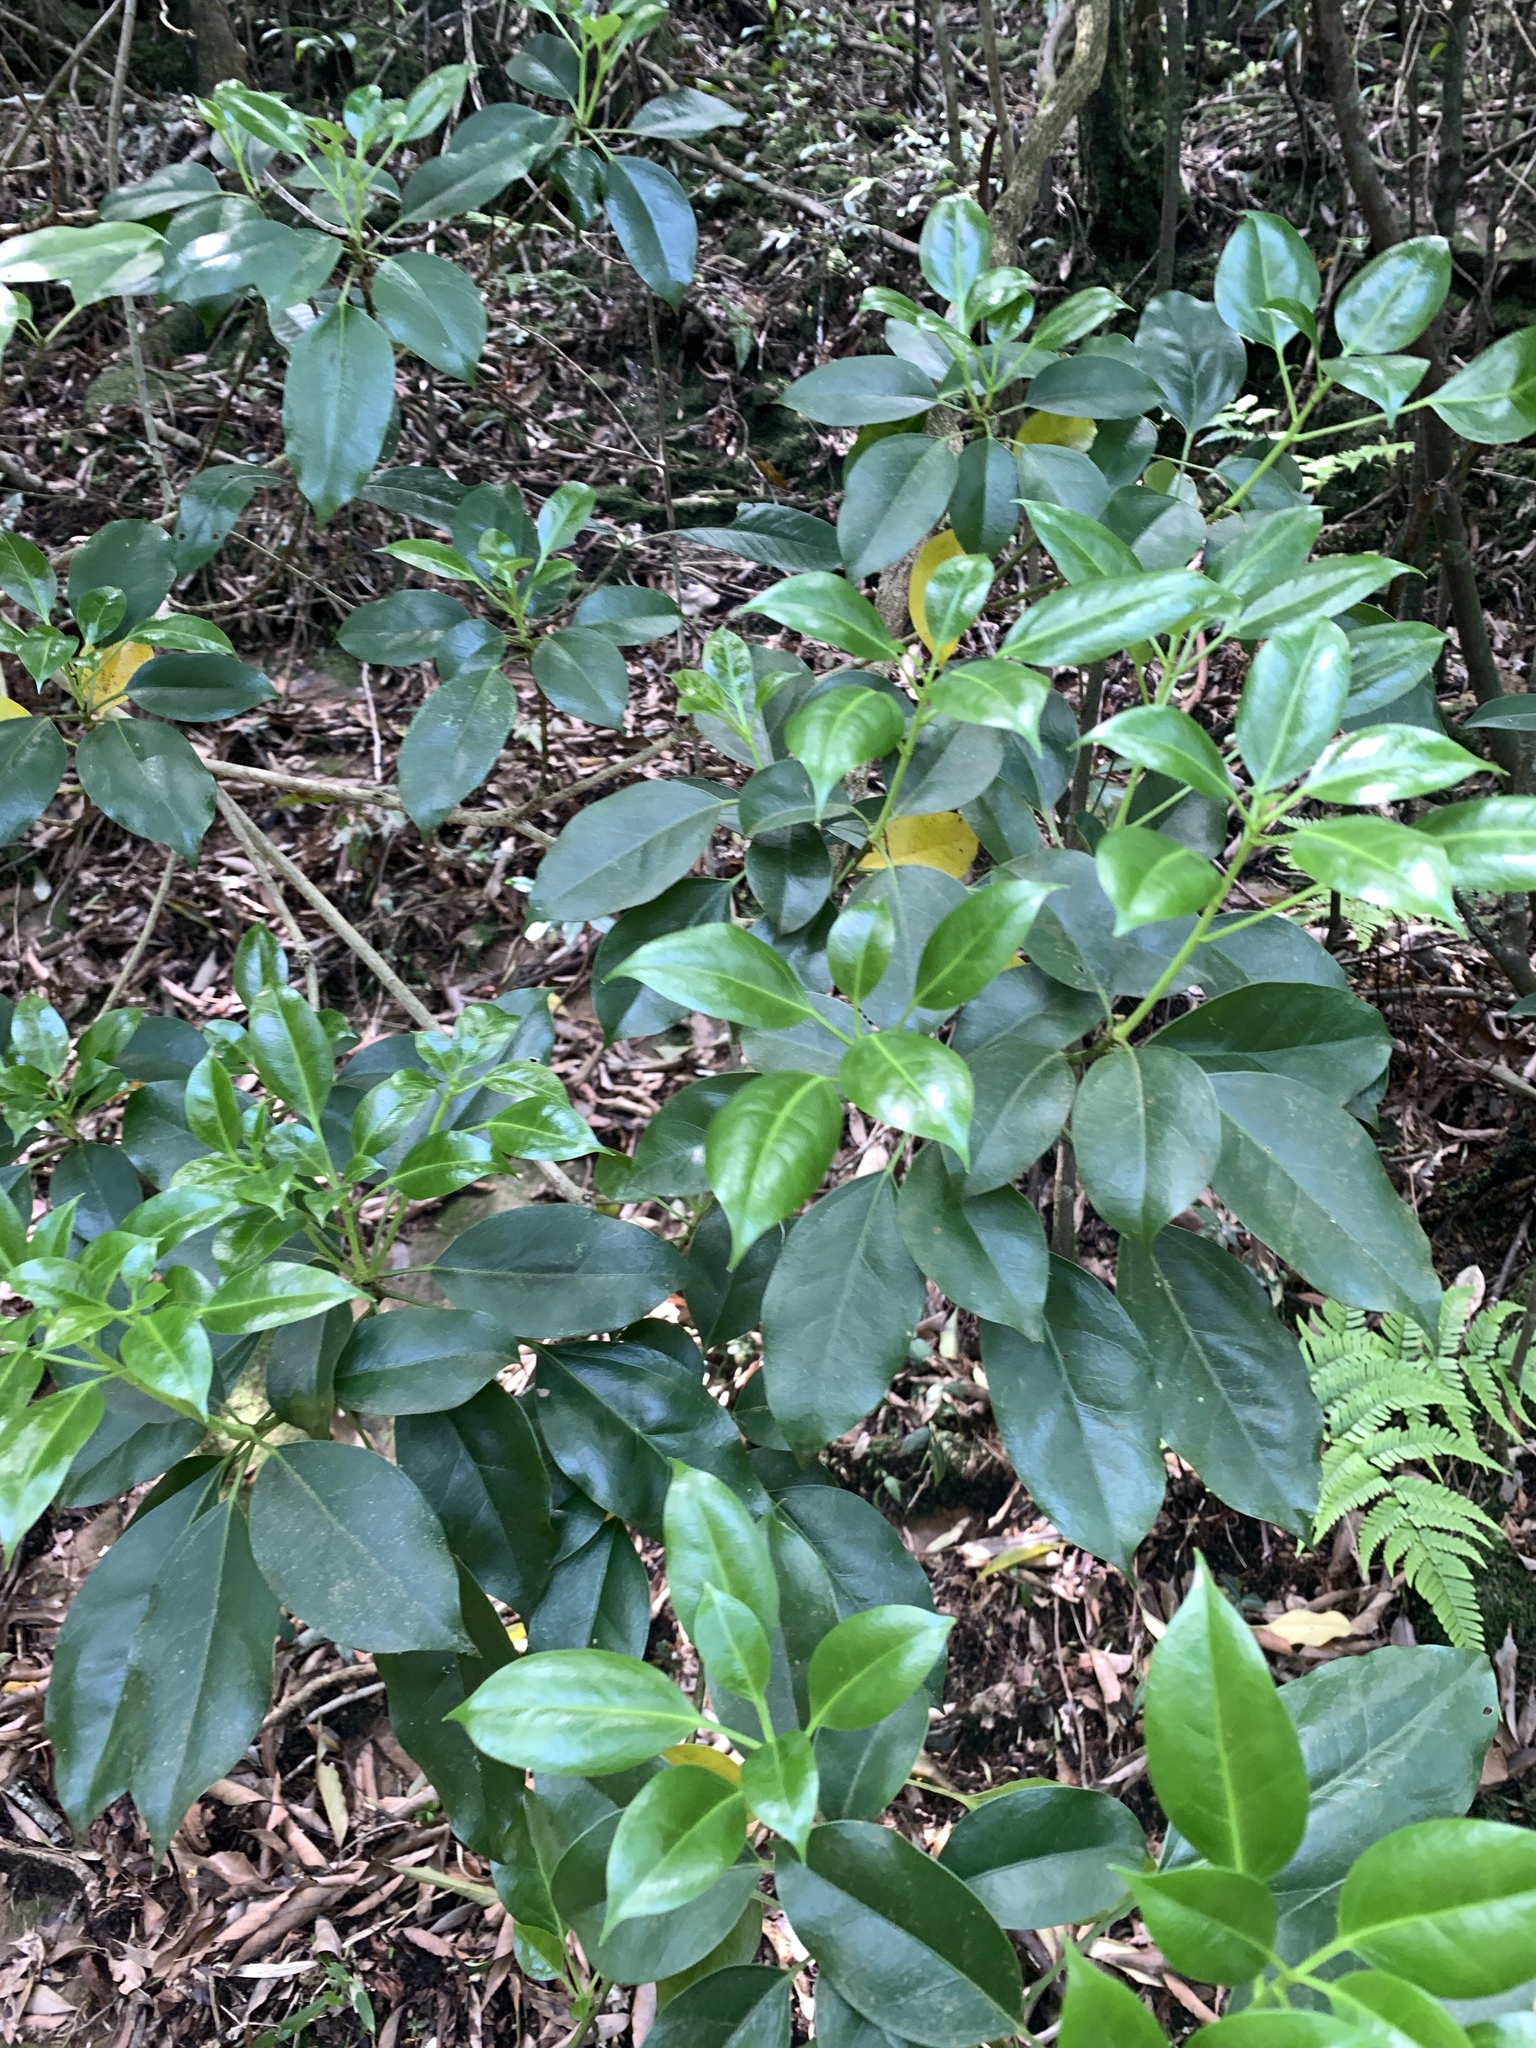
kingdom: Plantae
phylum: Tracheophyta
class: Magnoliopsida
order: Apiales
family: Araliaceae
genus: Dendropanax
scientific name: Dendropanax dentiger
